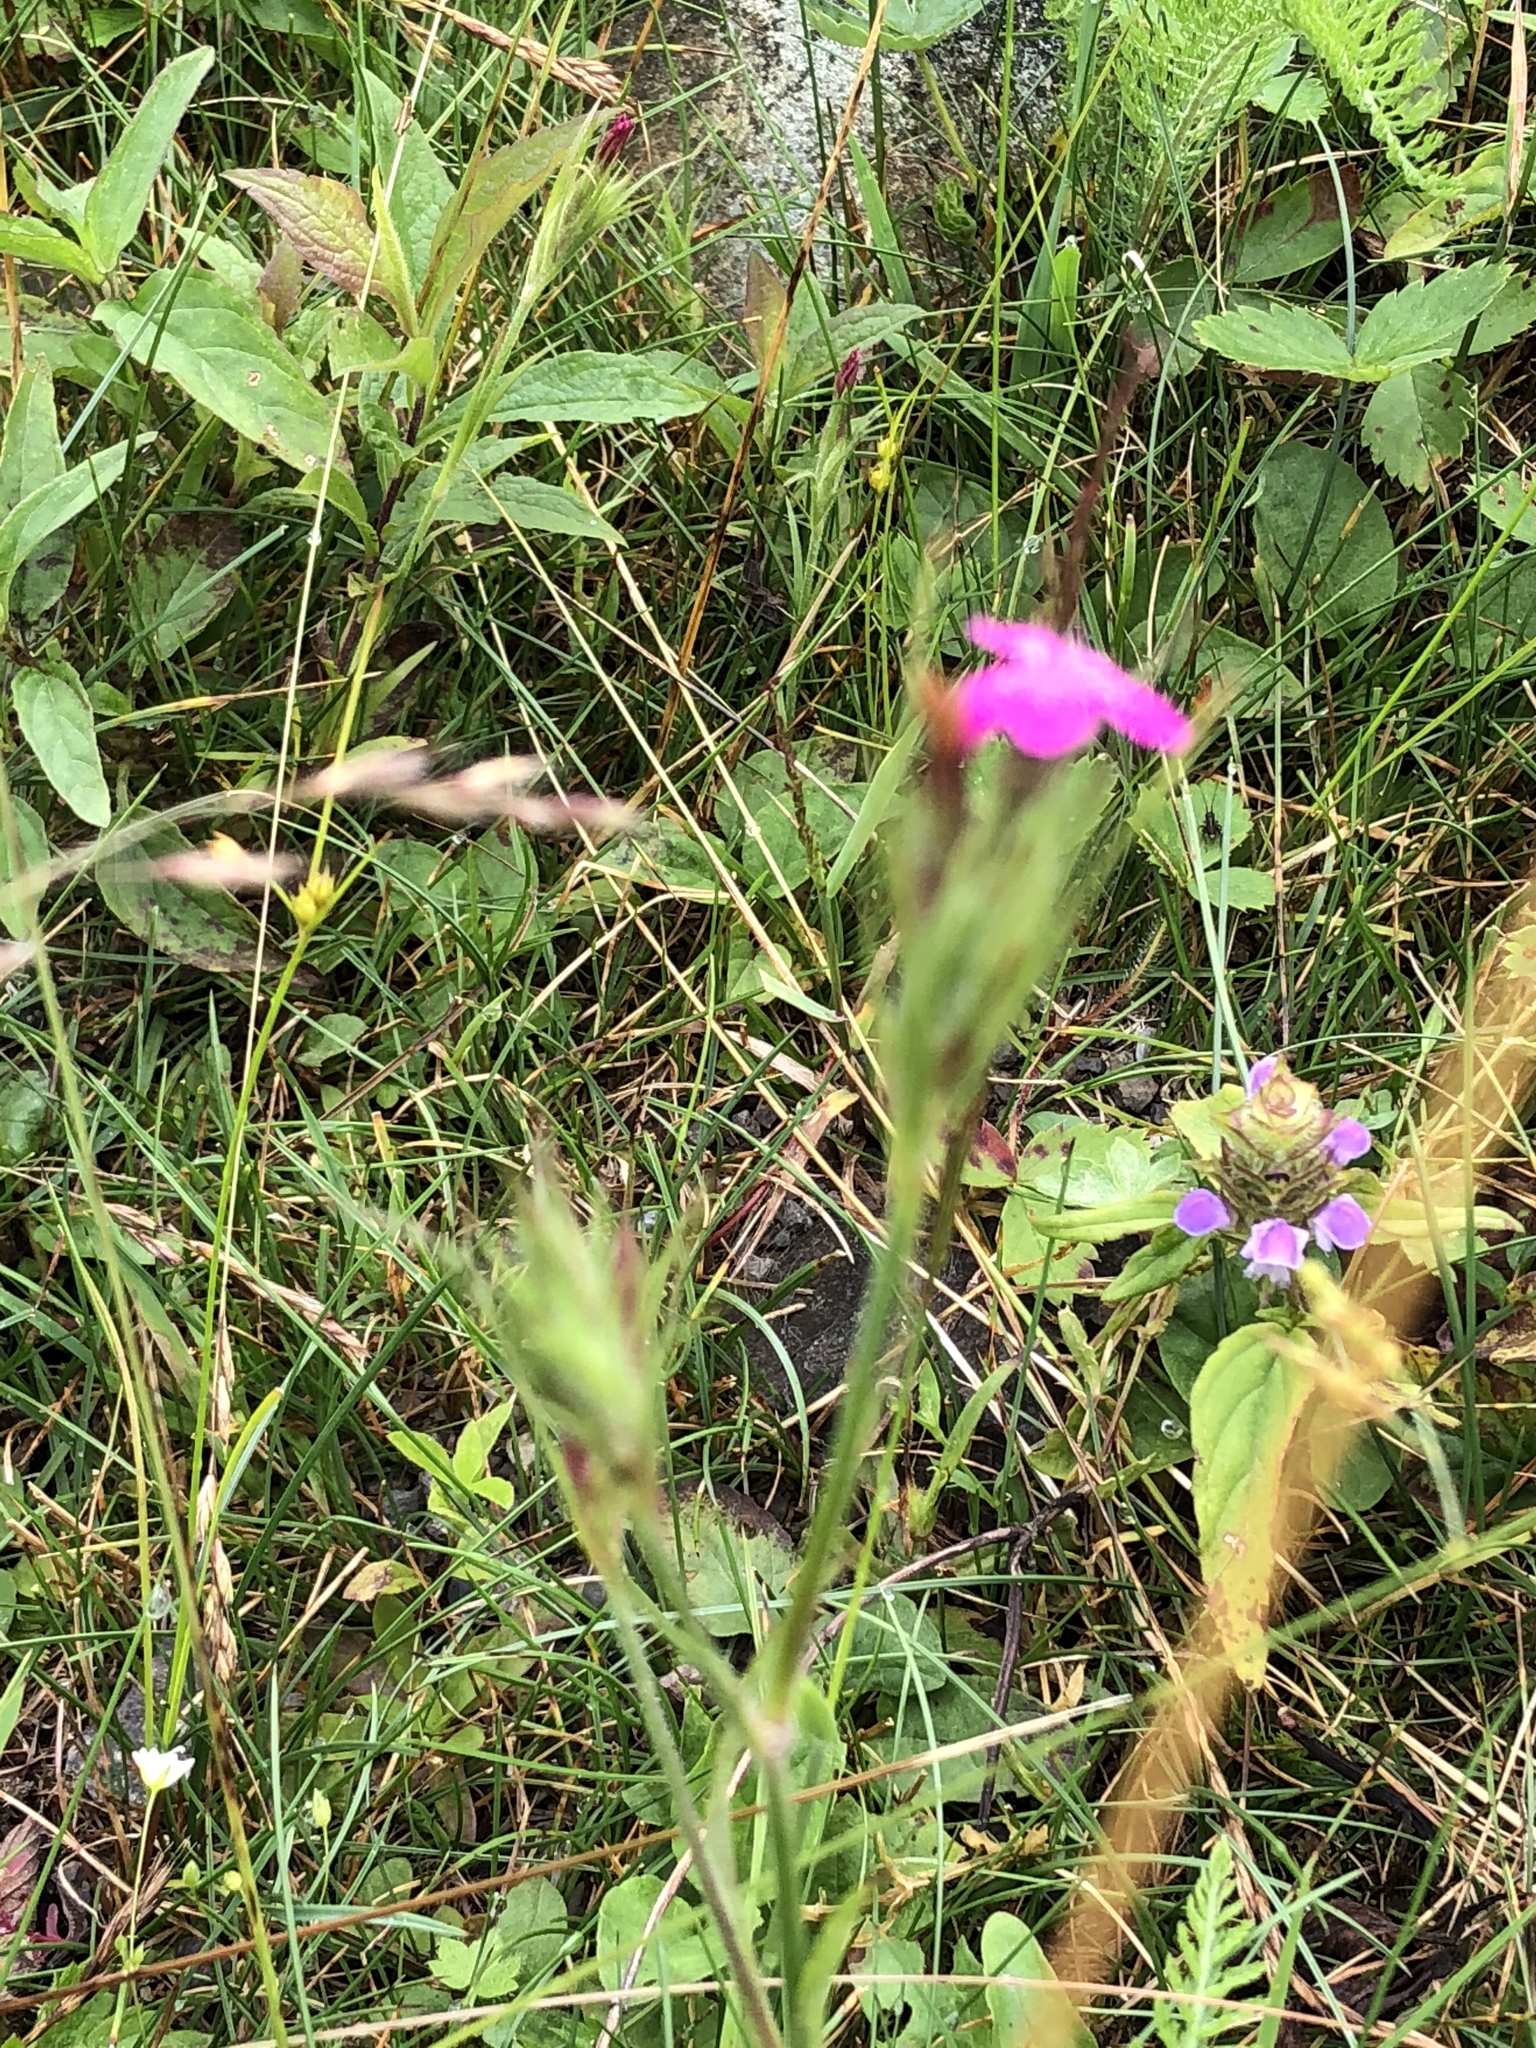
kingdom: Plantae
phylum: Tracheophyta
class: Magnoliopsida
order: Caryophyllales
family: Caryophyllaceae
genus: Dianthus
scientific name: Dianthus armeria
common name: Deptford pink
